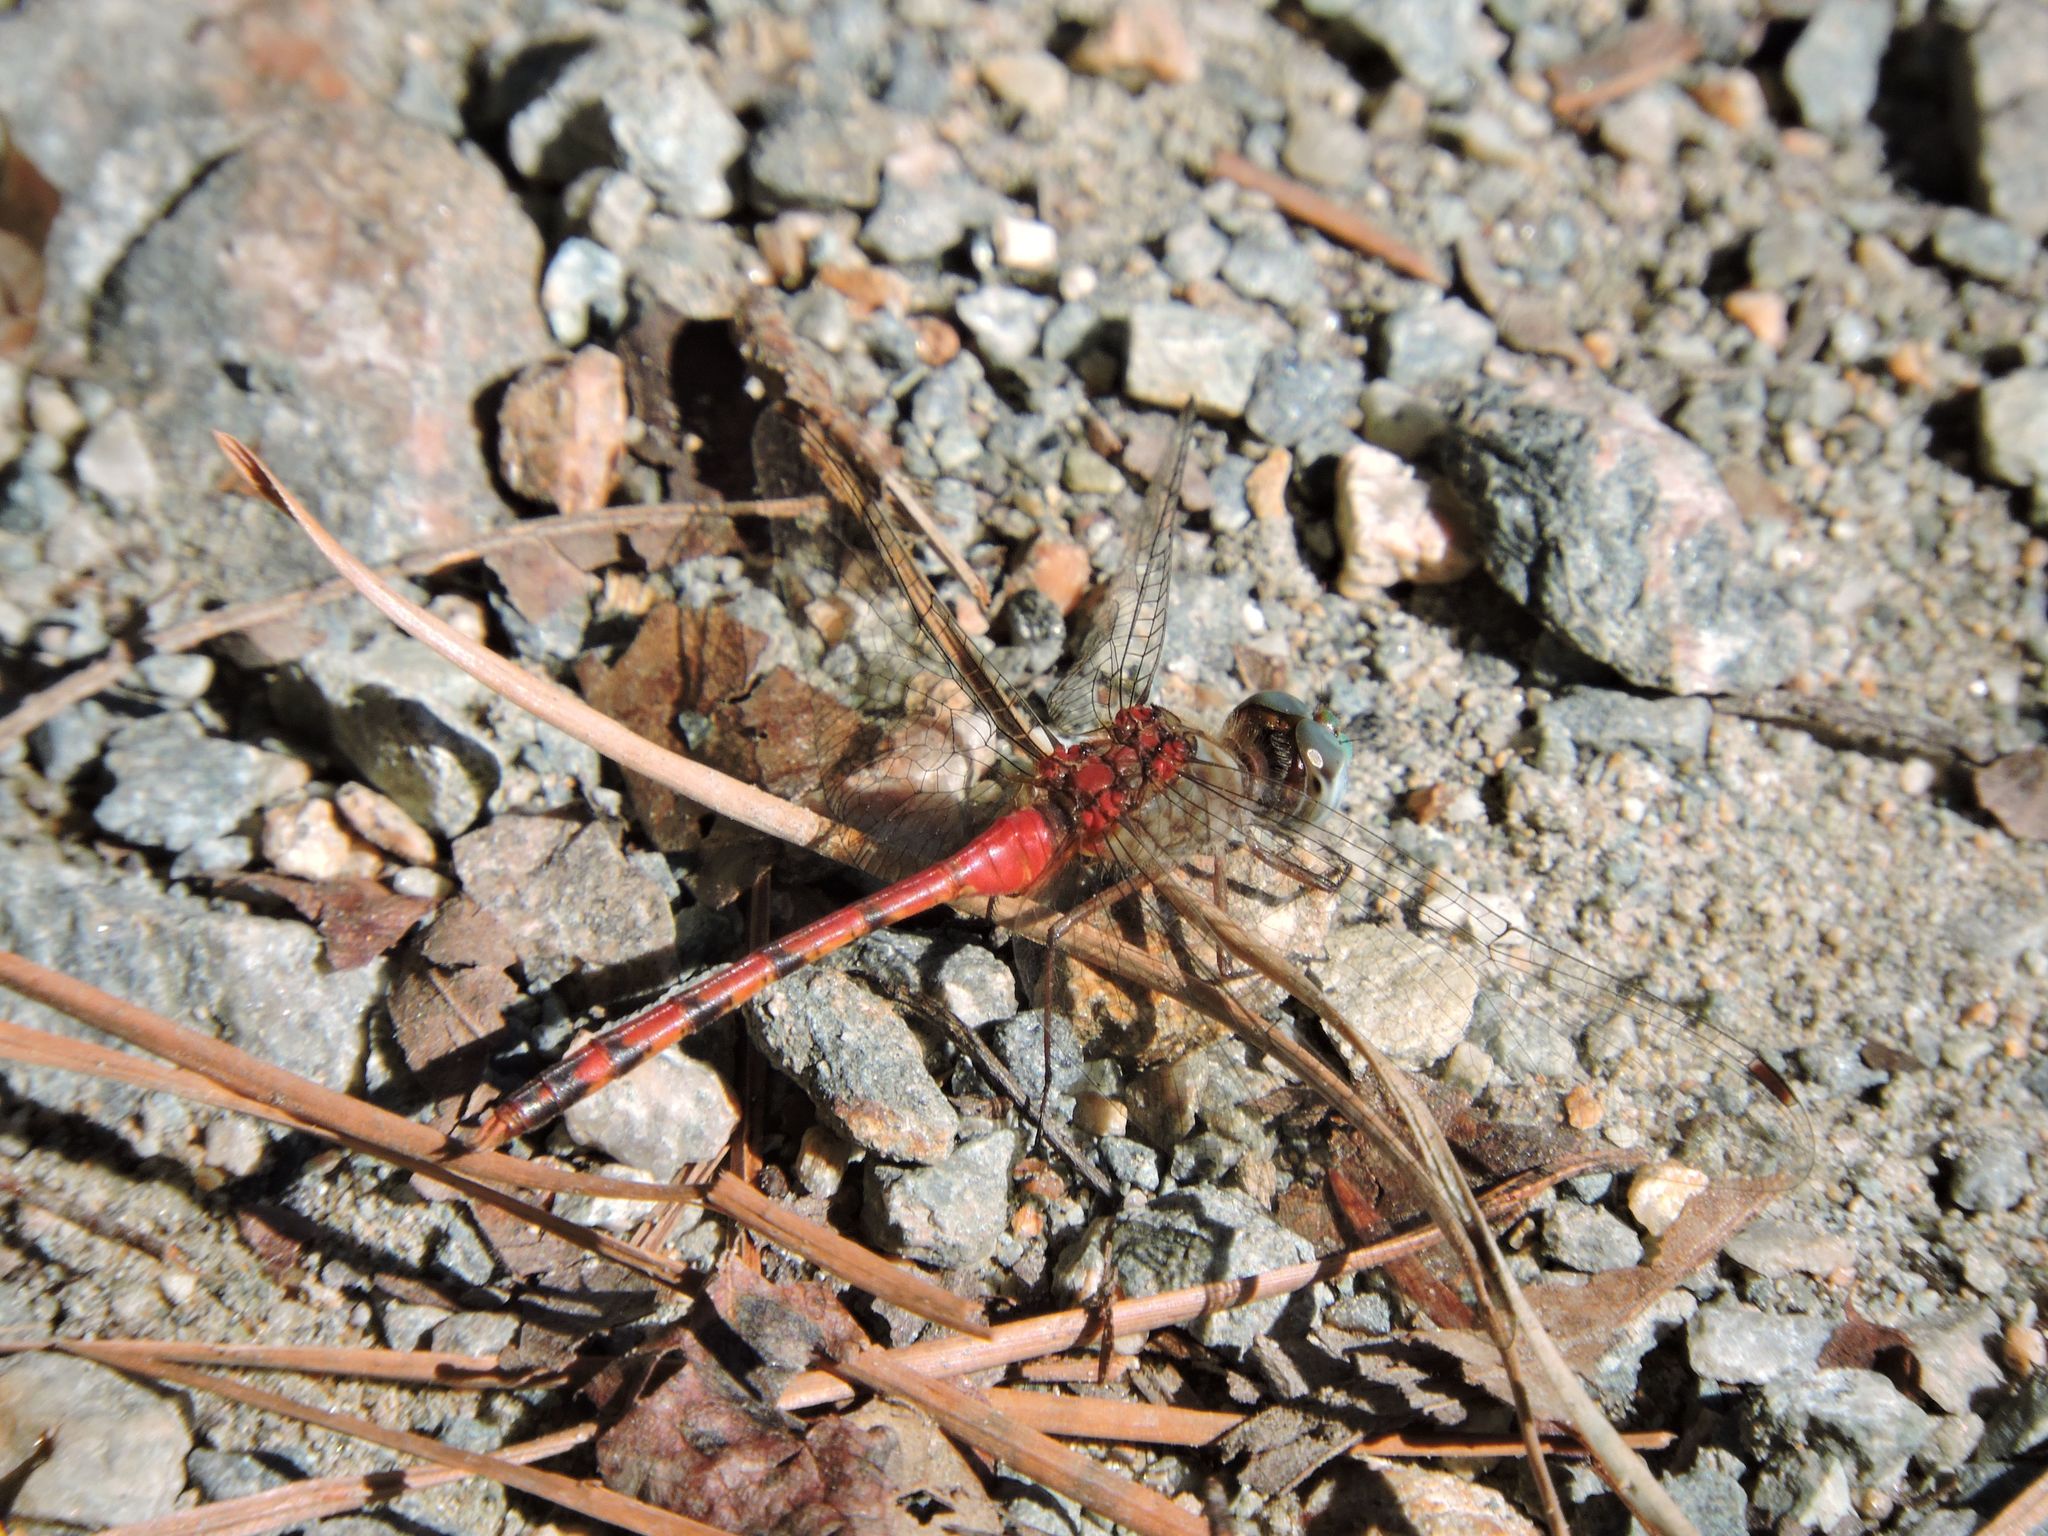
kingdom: Animalia
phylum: Arthropoda
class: Insecta
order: Odonata
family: Libellulidae
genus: Sympetrum
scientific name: Sympetrum ambiguum
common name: Blue-faced meadowhawk
